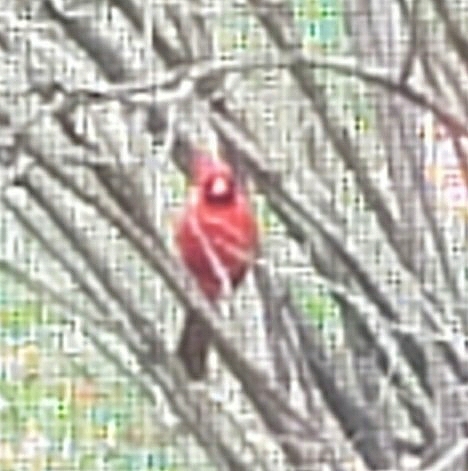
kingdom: Animalia
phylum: Chordata
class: Aves
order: Passeriformes
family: Cardinalidae
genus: Cardinalis
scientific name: Cardinalis cardinalis
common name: Northern cardinal
